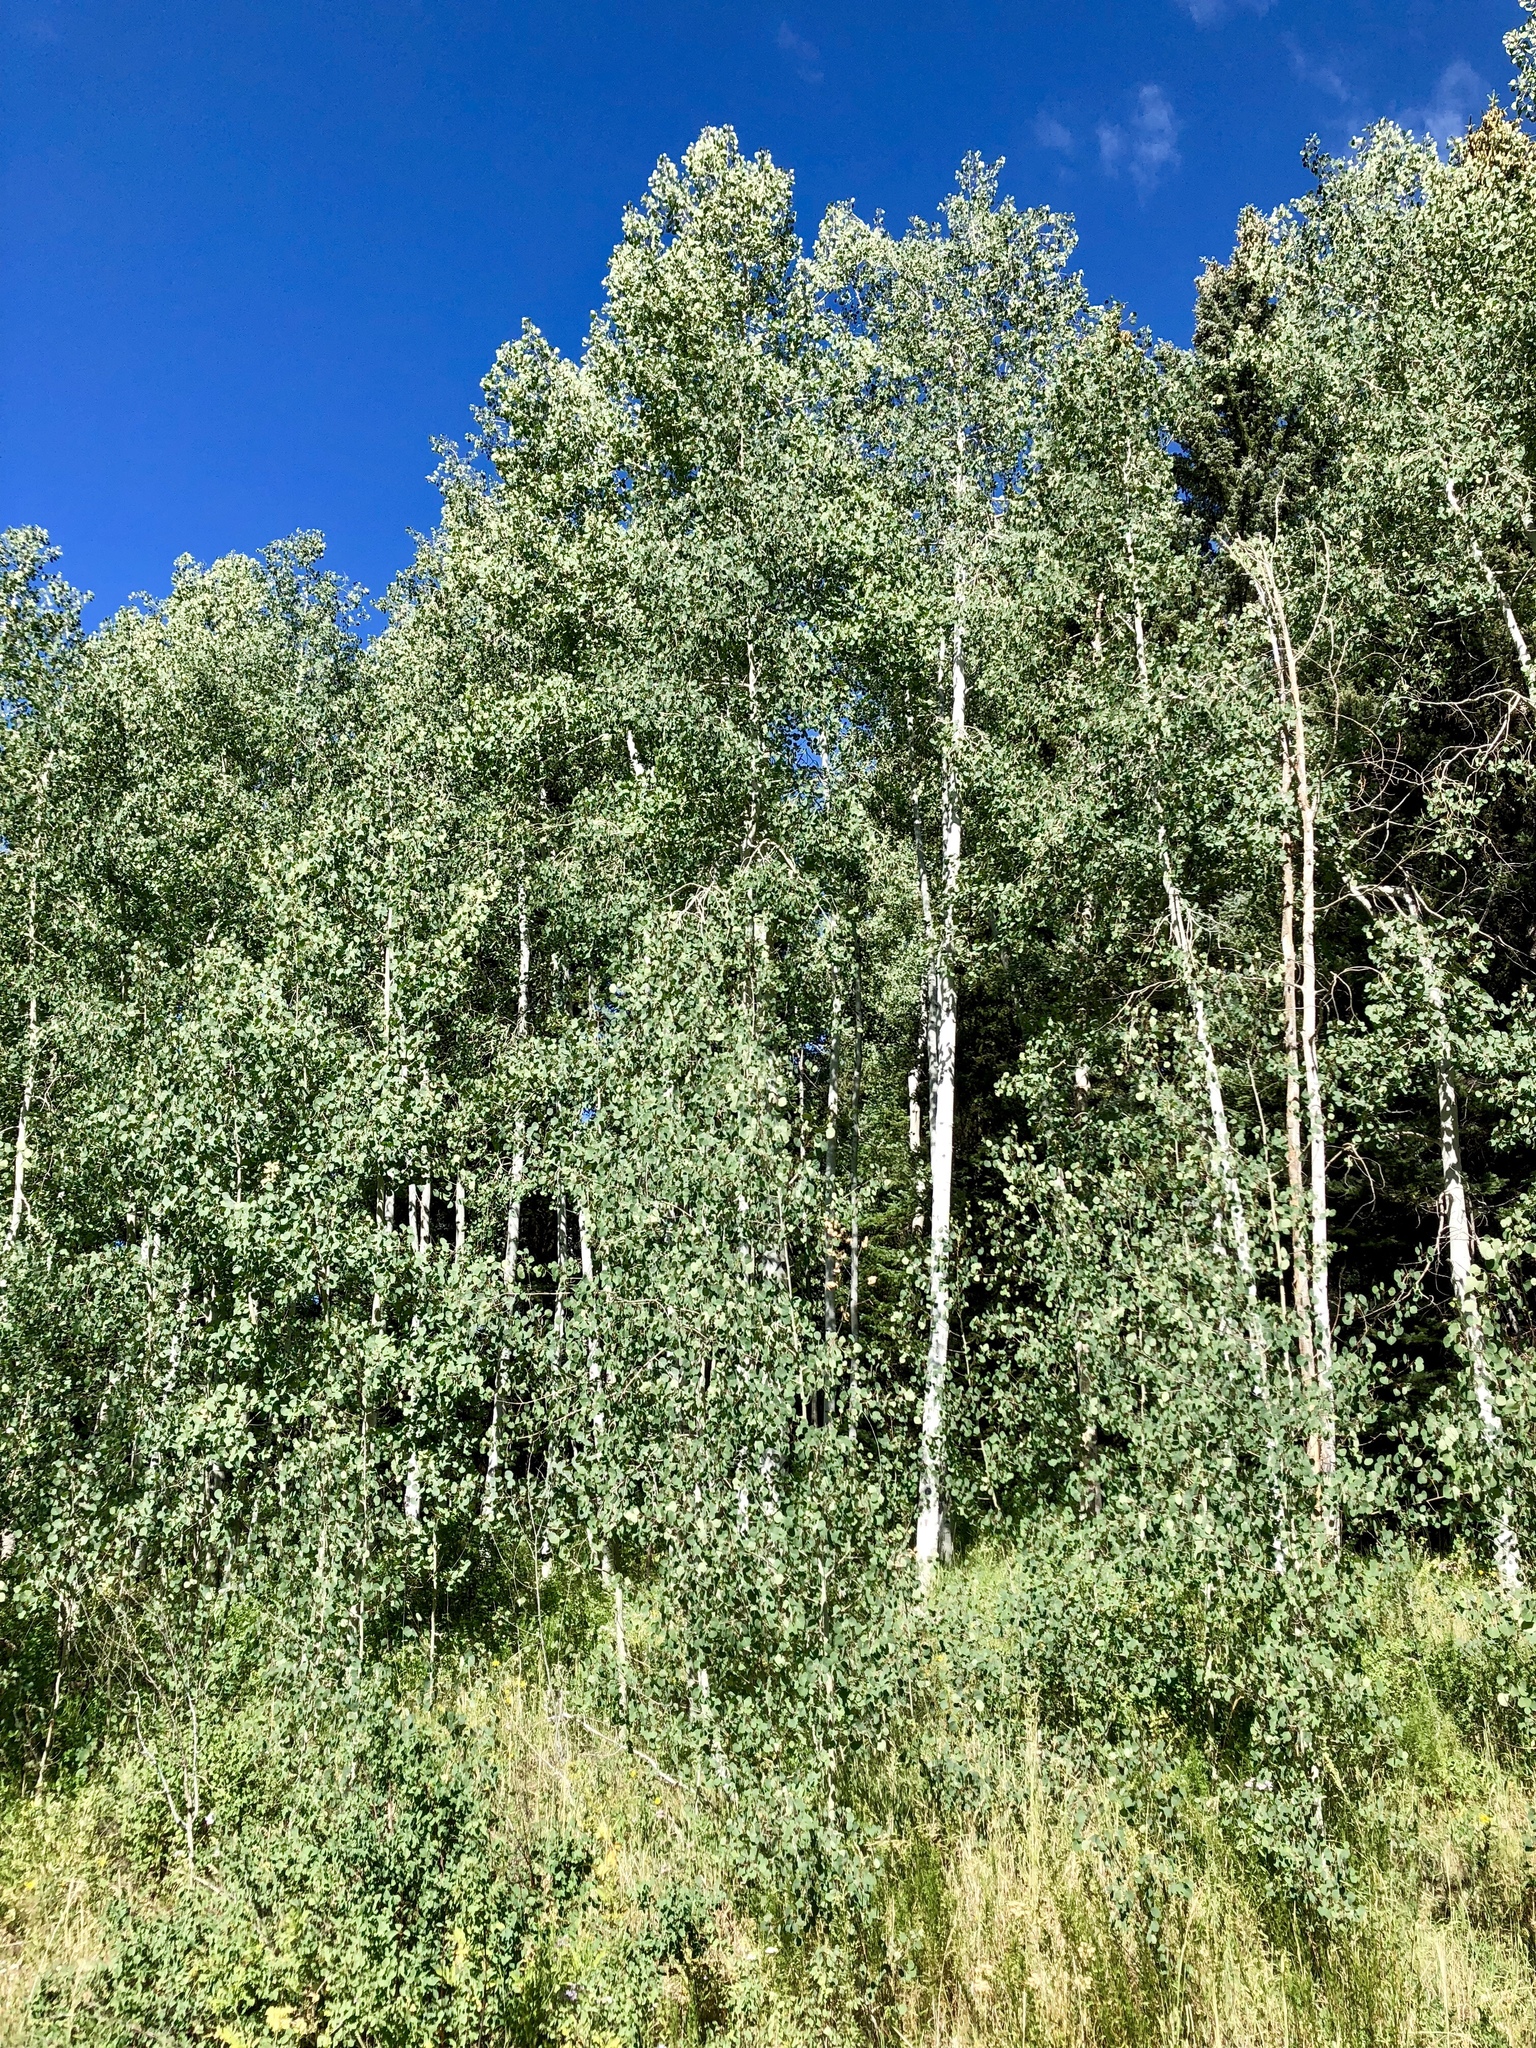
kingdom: Plantae
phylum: Tracheophyta
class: Magnoliopsida
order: Malpighiales
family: Salicaceae
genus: Populus
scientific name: Populus tremuloides
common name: Quaking aspen
